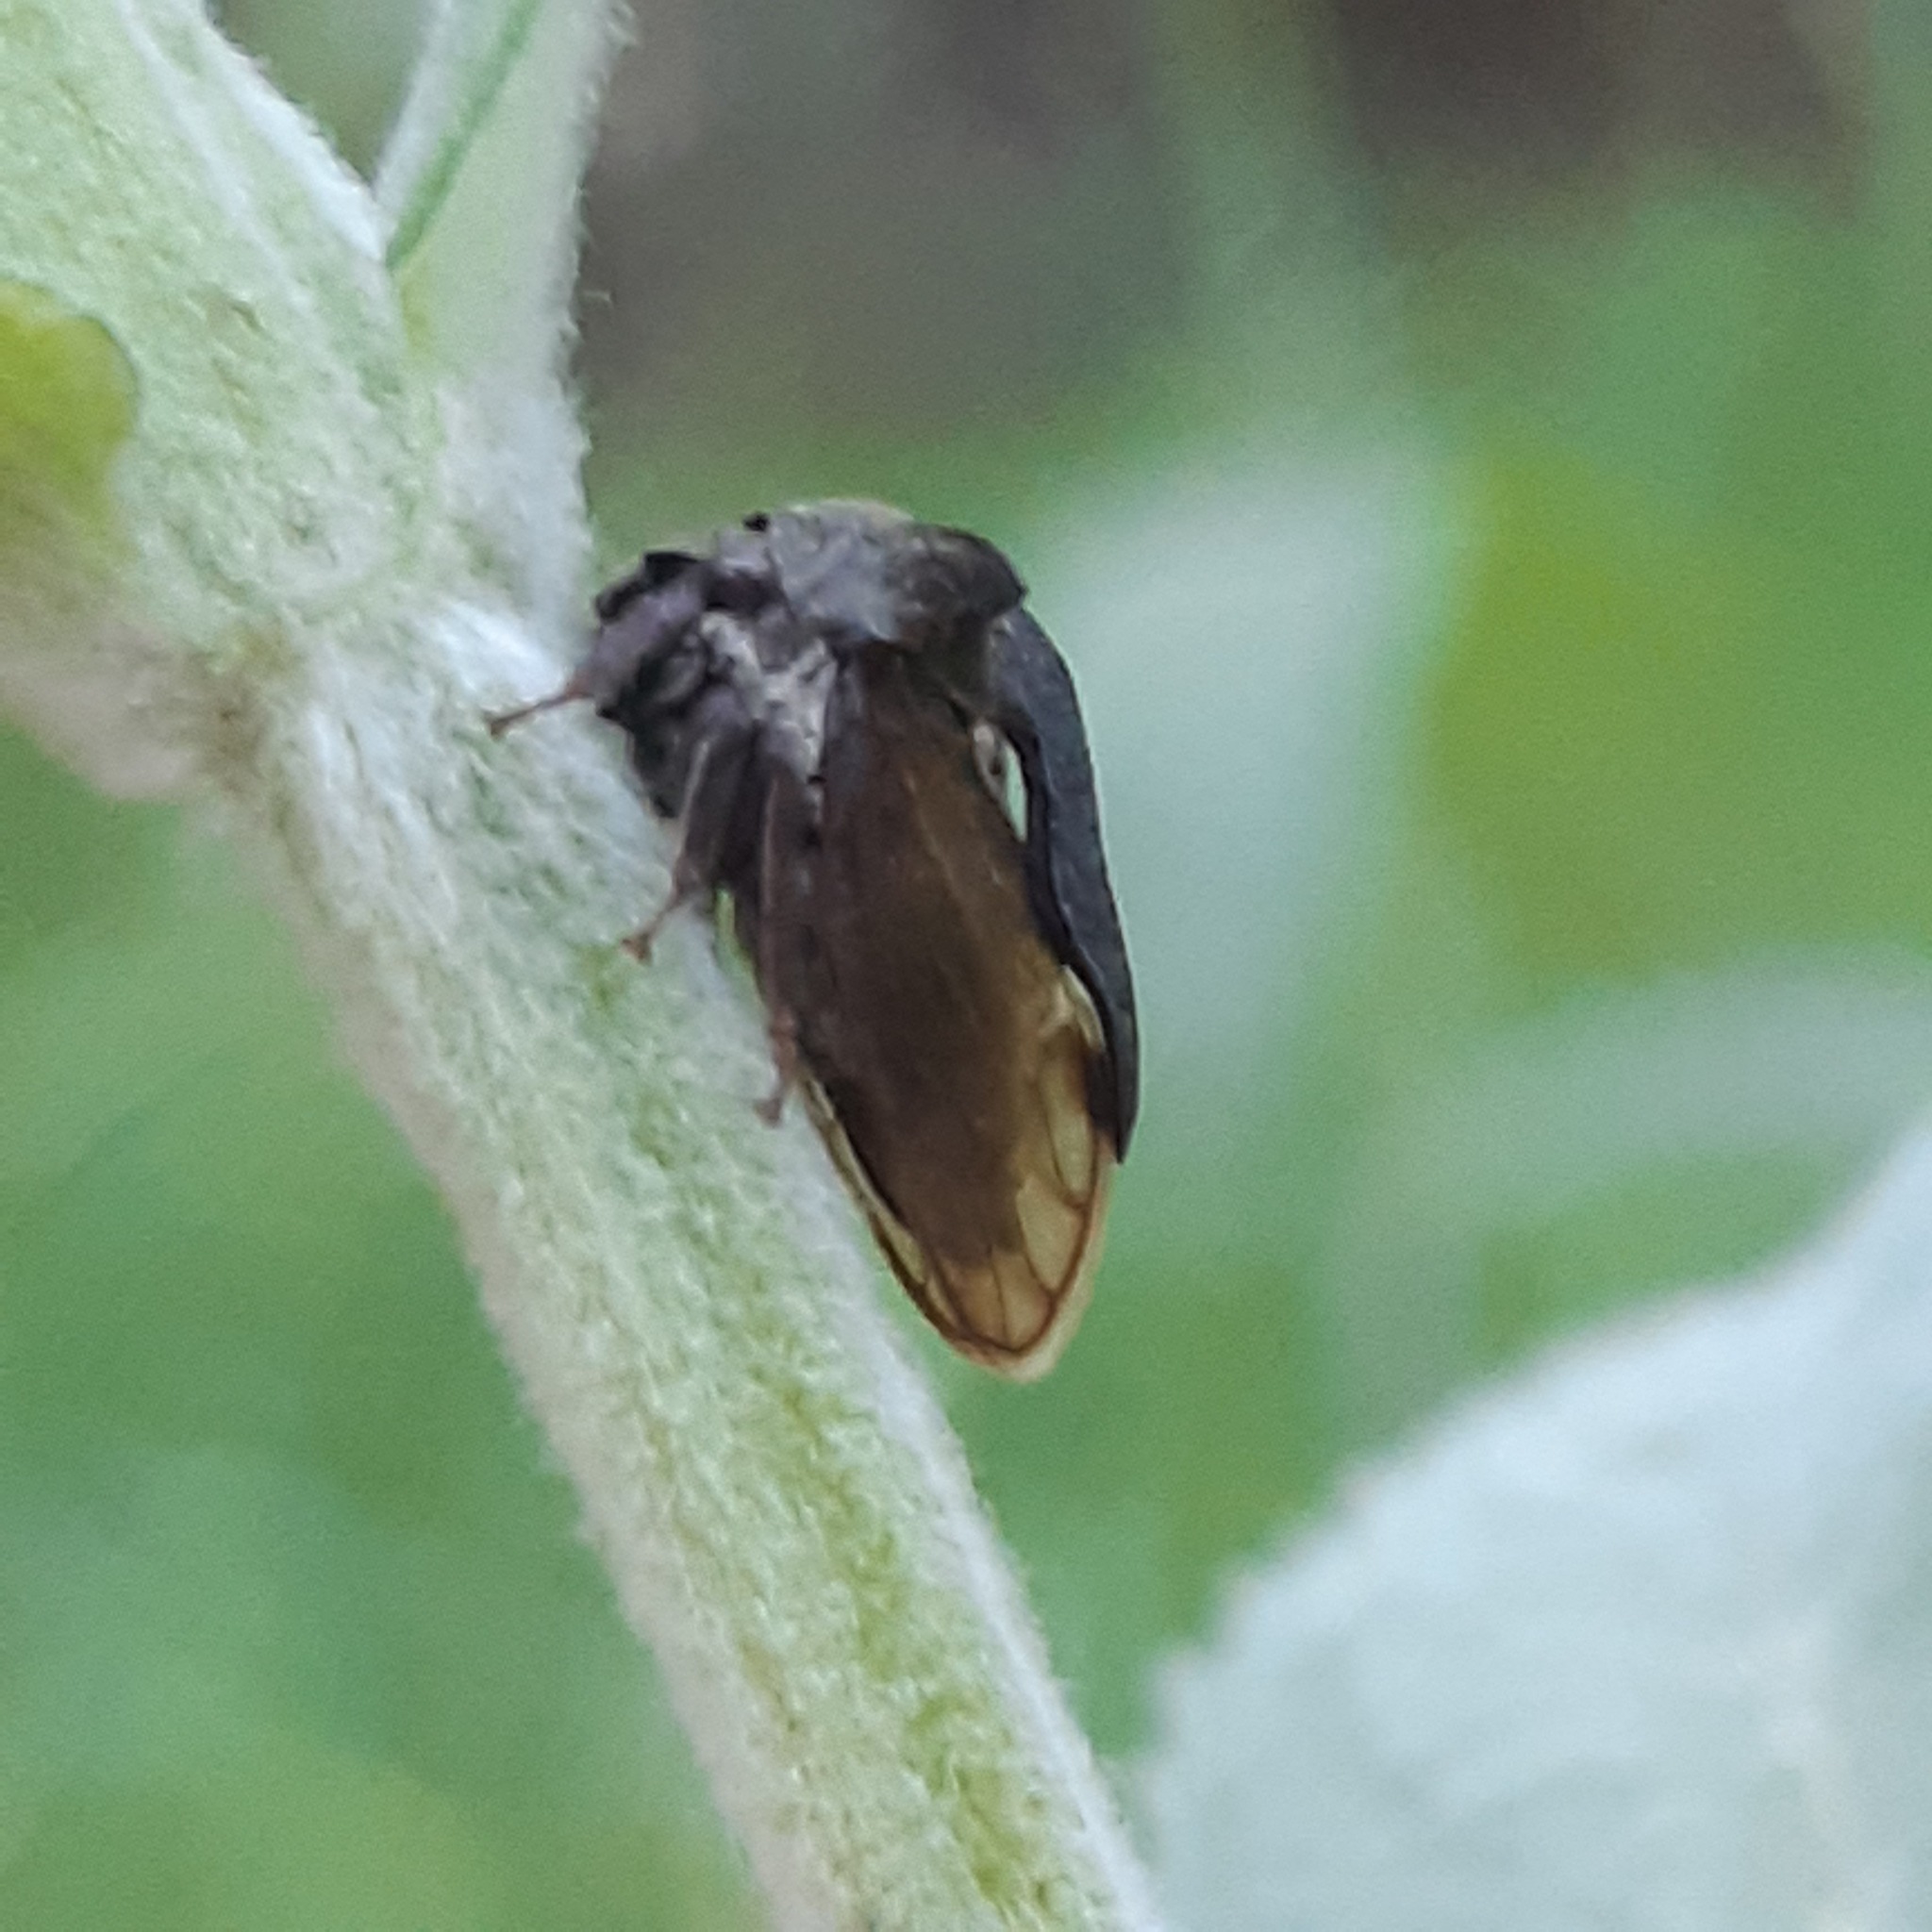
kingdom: Animalia
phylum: Arthropoda
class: Insecta
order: Hemiptera
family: Membracidae
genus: Centrotus
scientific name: Centrotus cornuta
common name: Treehopper
